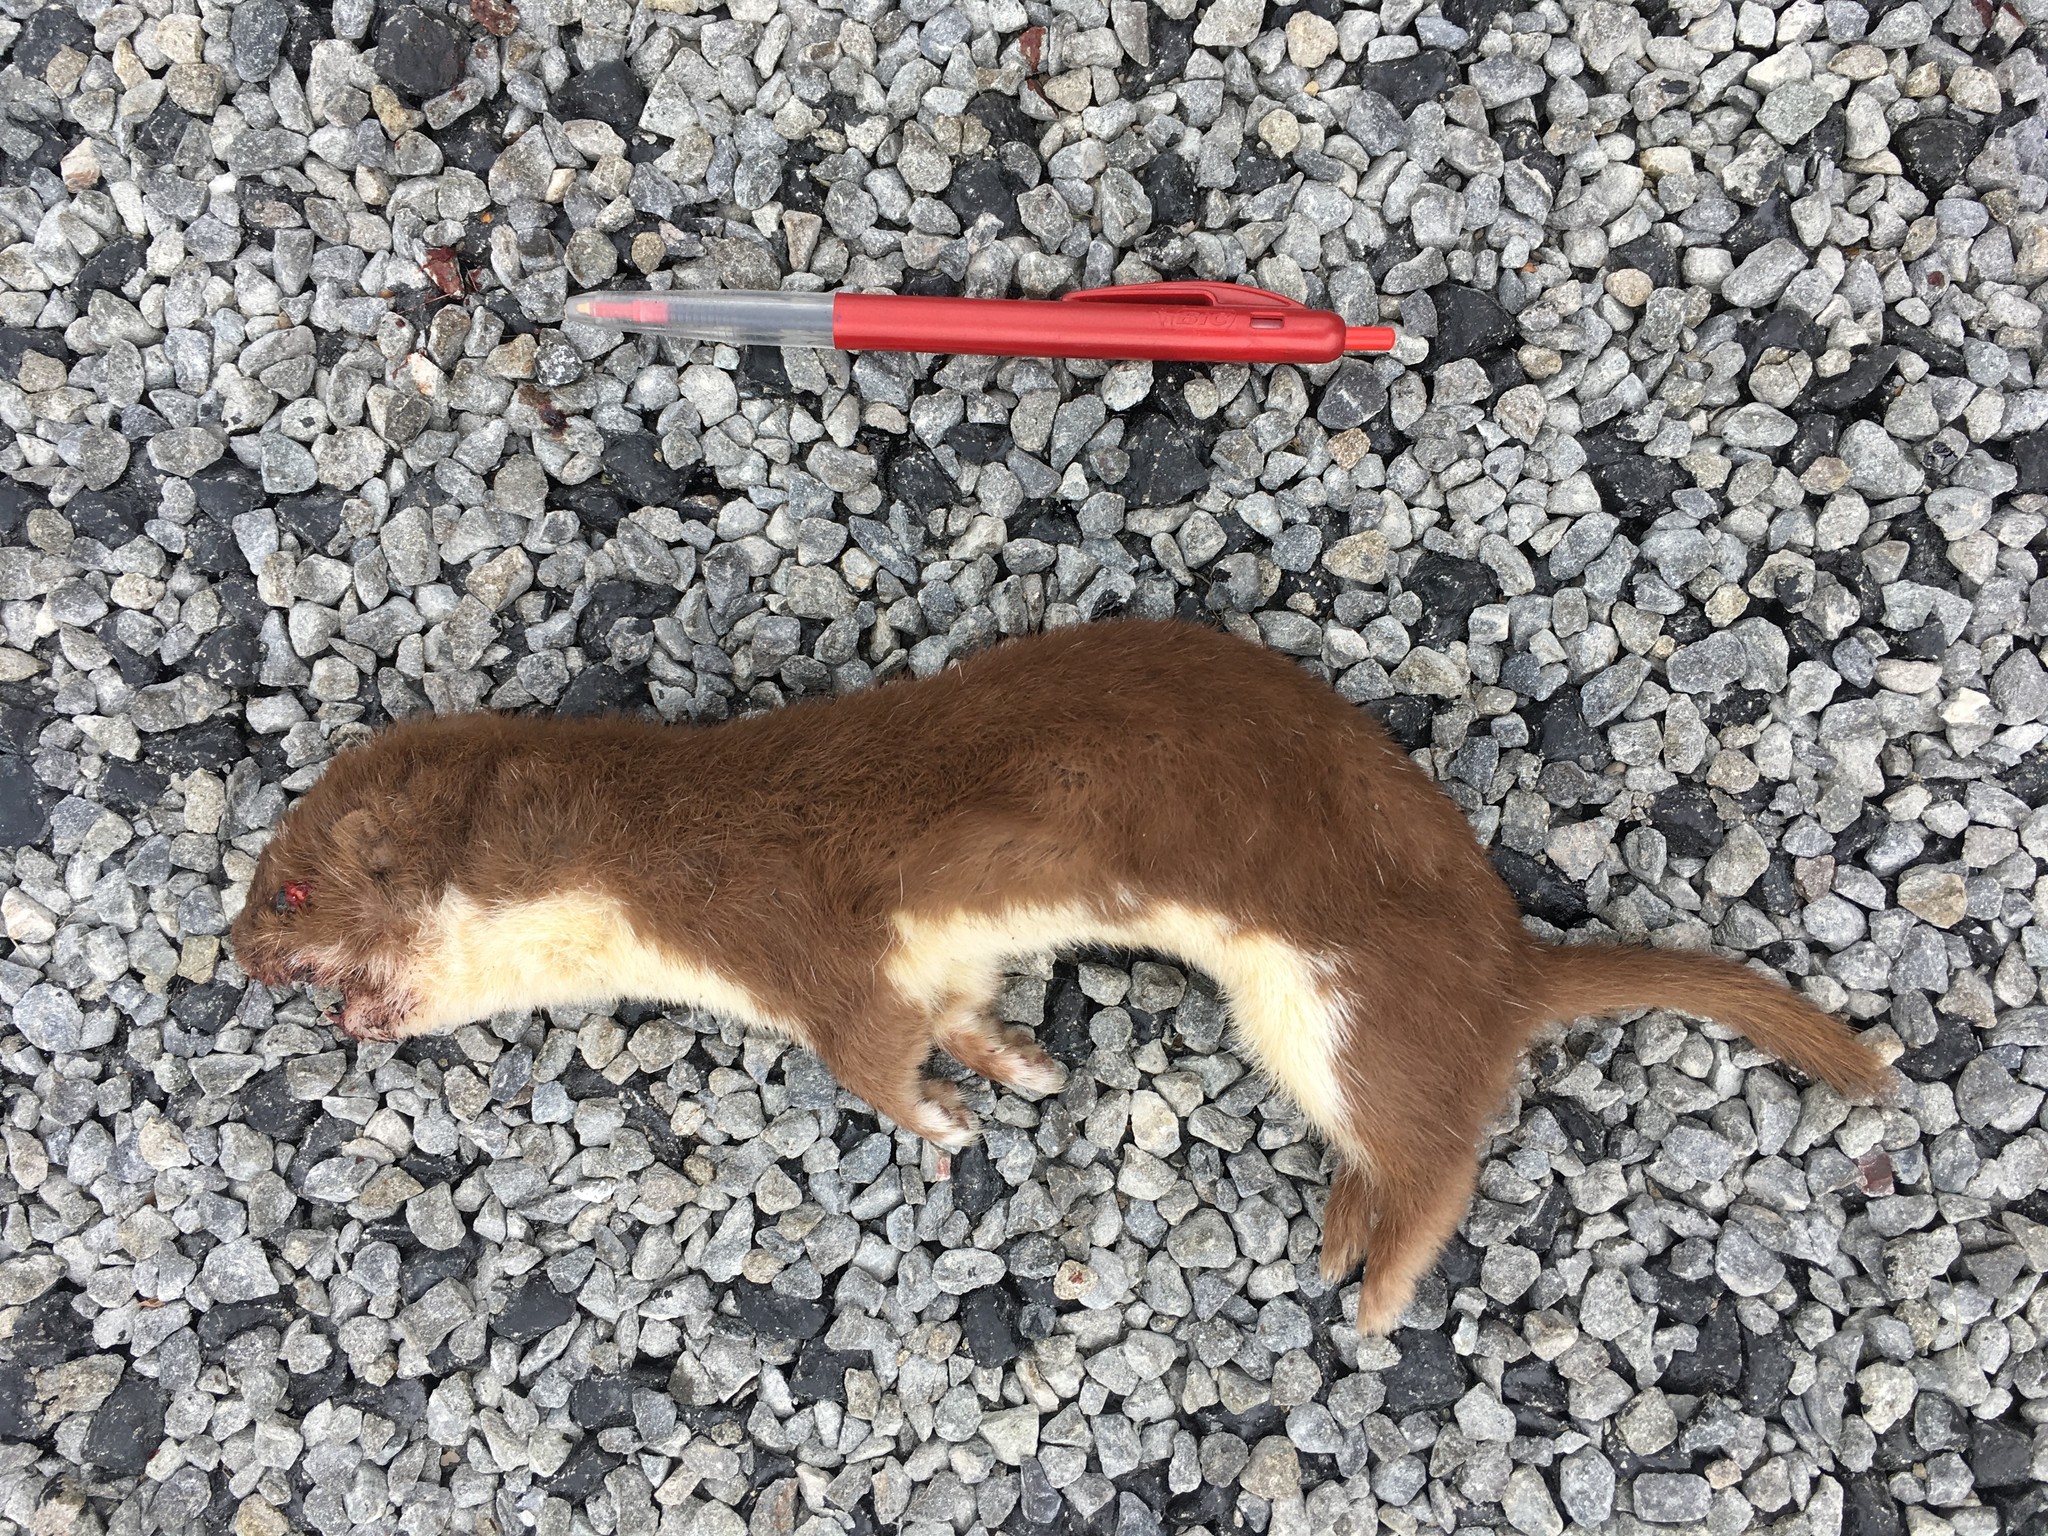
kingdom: Animalia
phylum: Chordata
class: Mammalia
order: Carnivora
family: Mustelidae
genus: Mustela
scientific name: Mustela nivalis
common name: Least weasel
